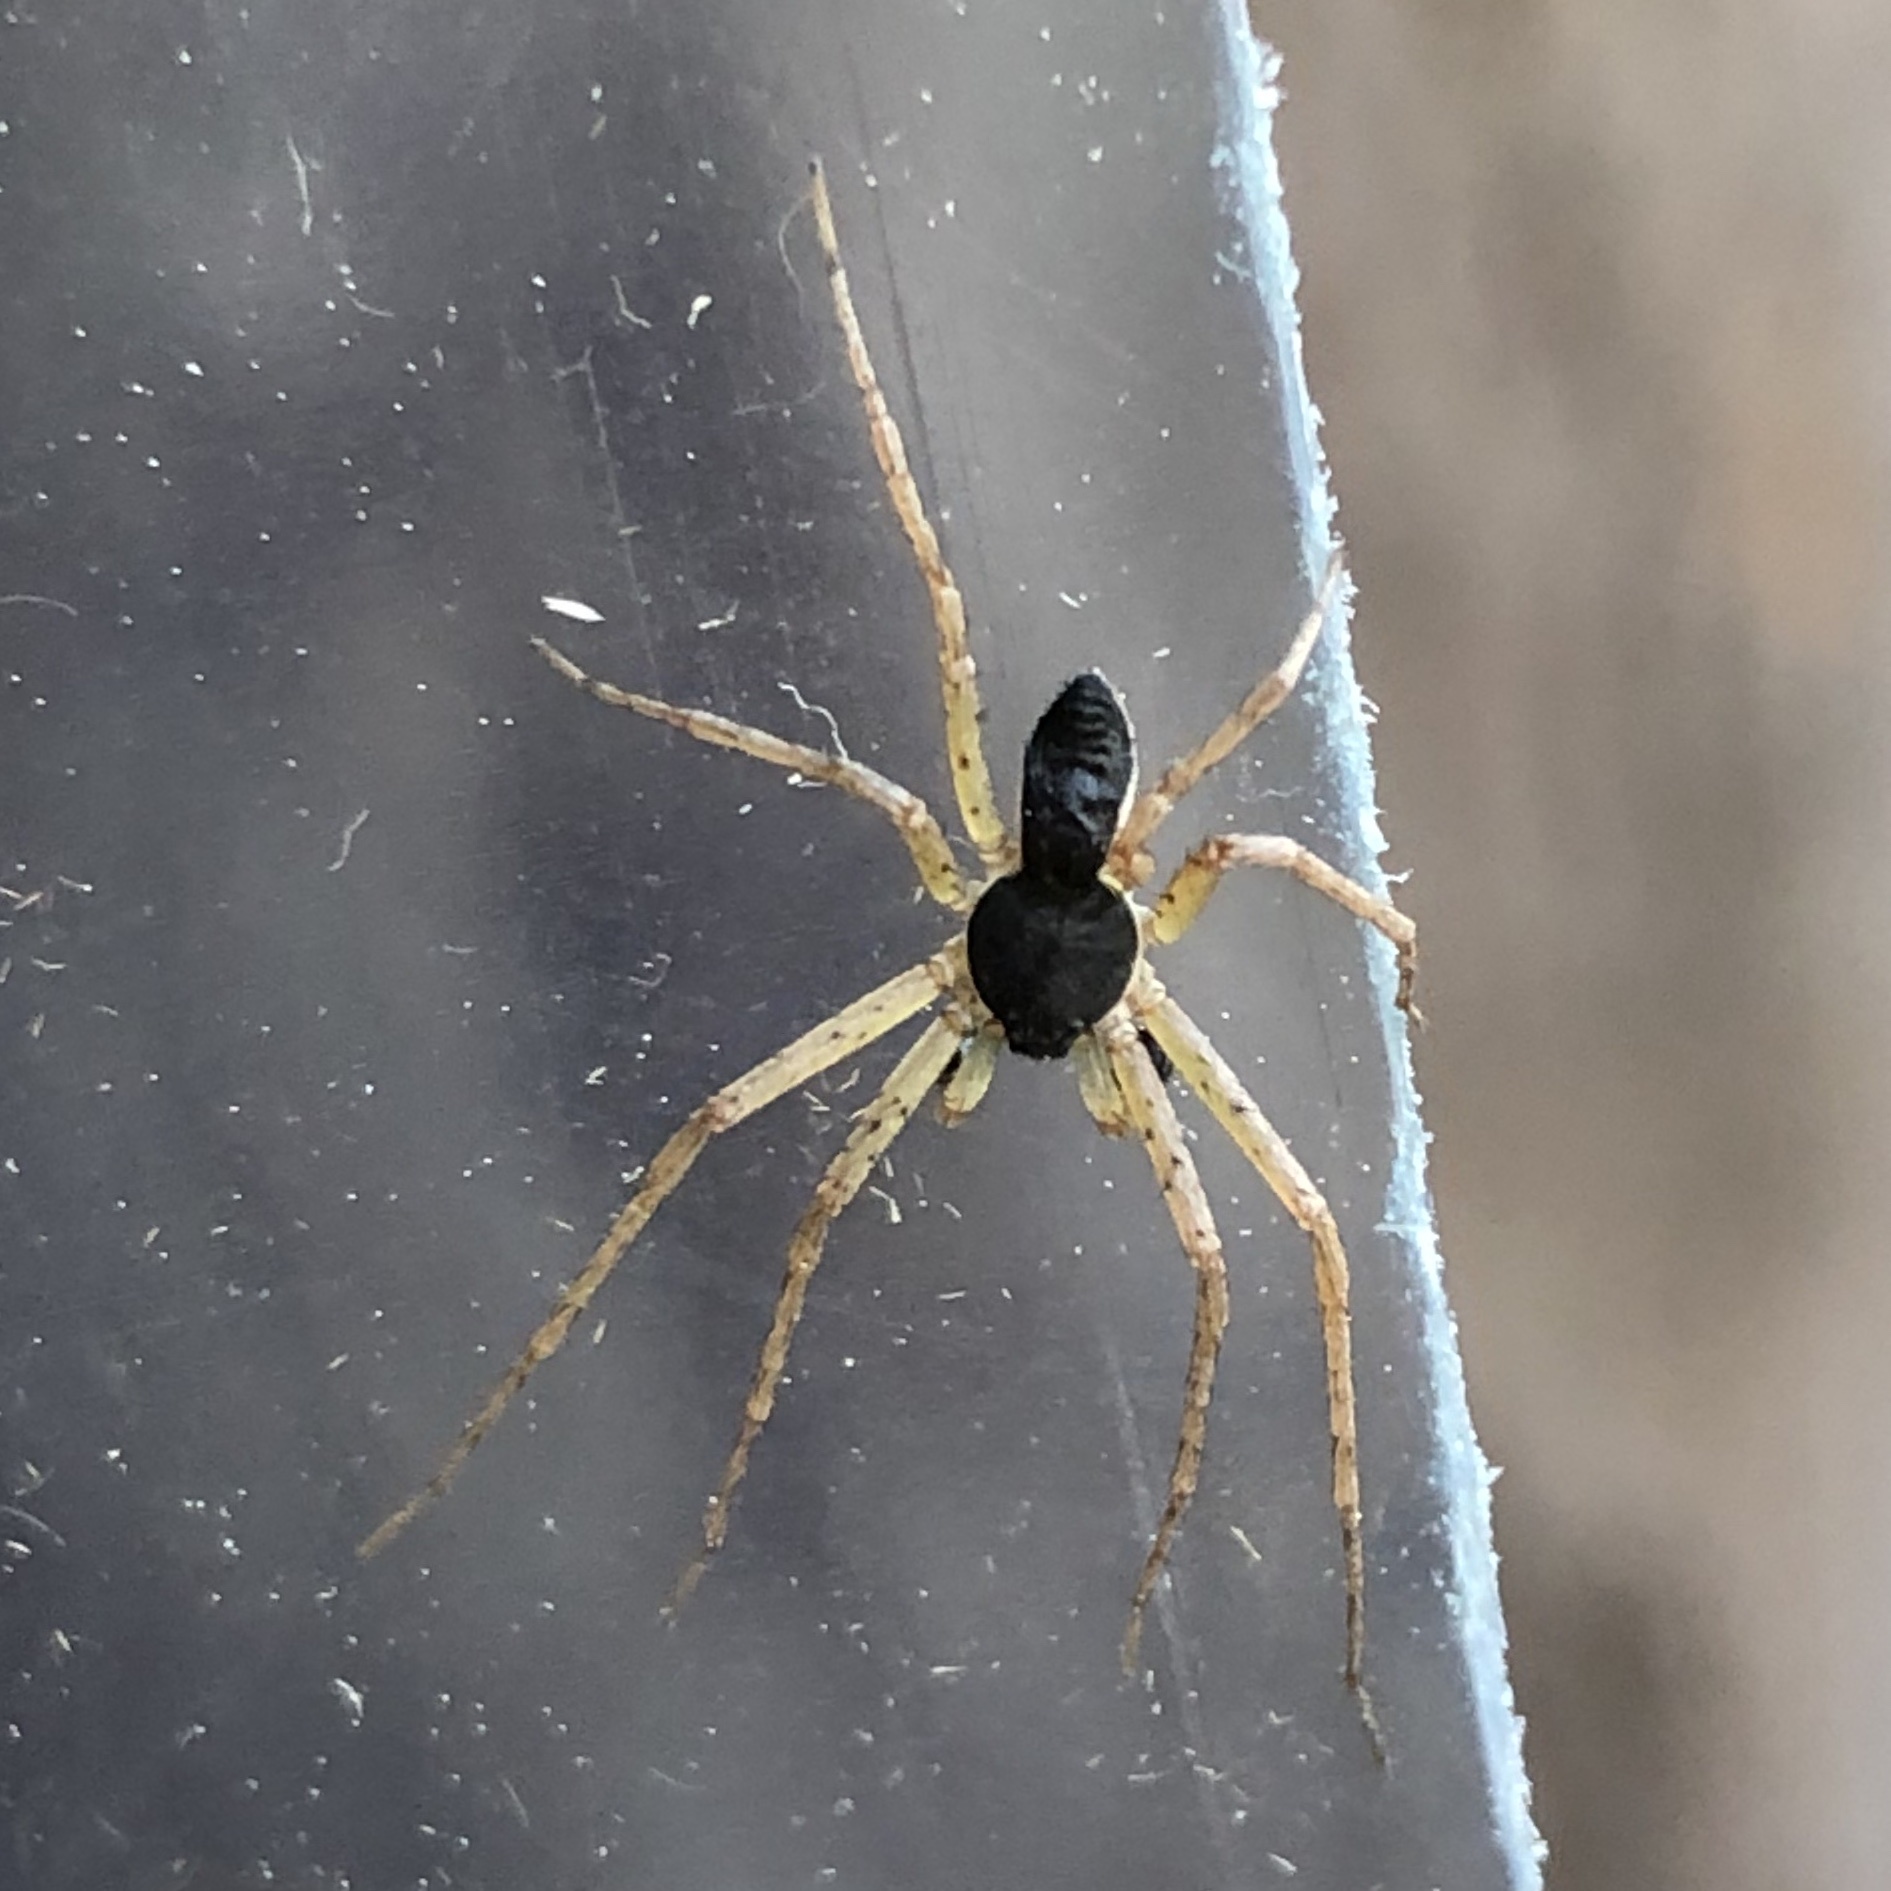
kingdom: Animalia
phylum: Arthropoda
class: Arachnida
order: Araneae
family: Philodromidae
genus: Philodromus
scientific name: Philodromus dispar
